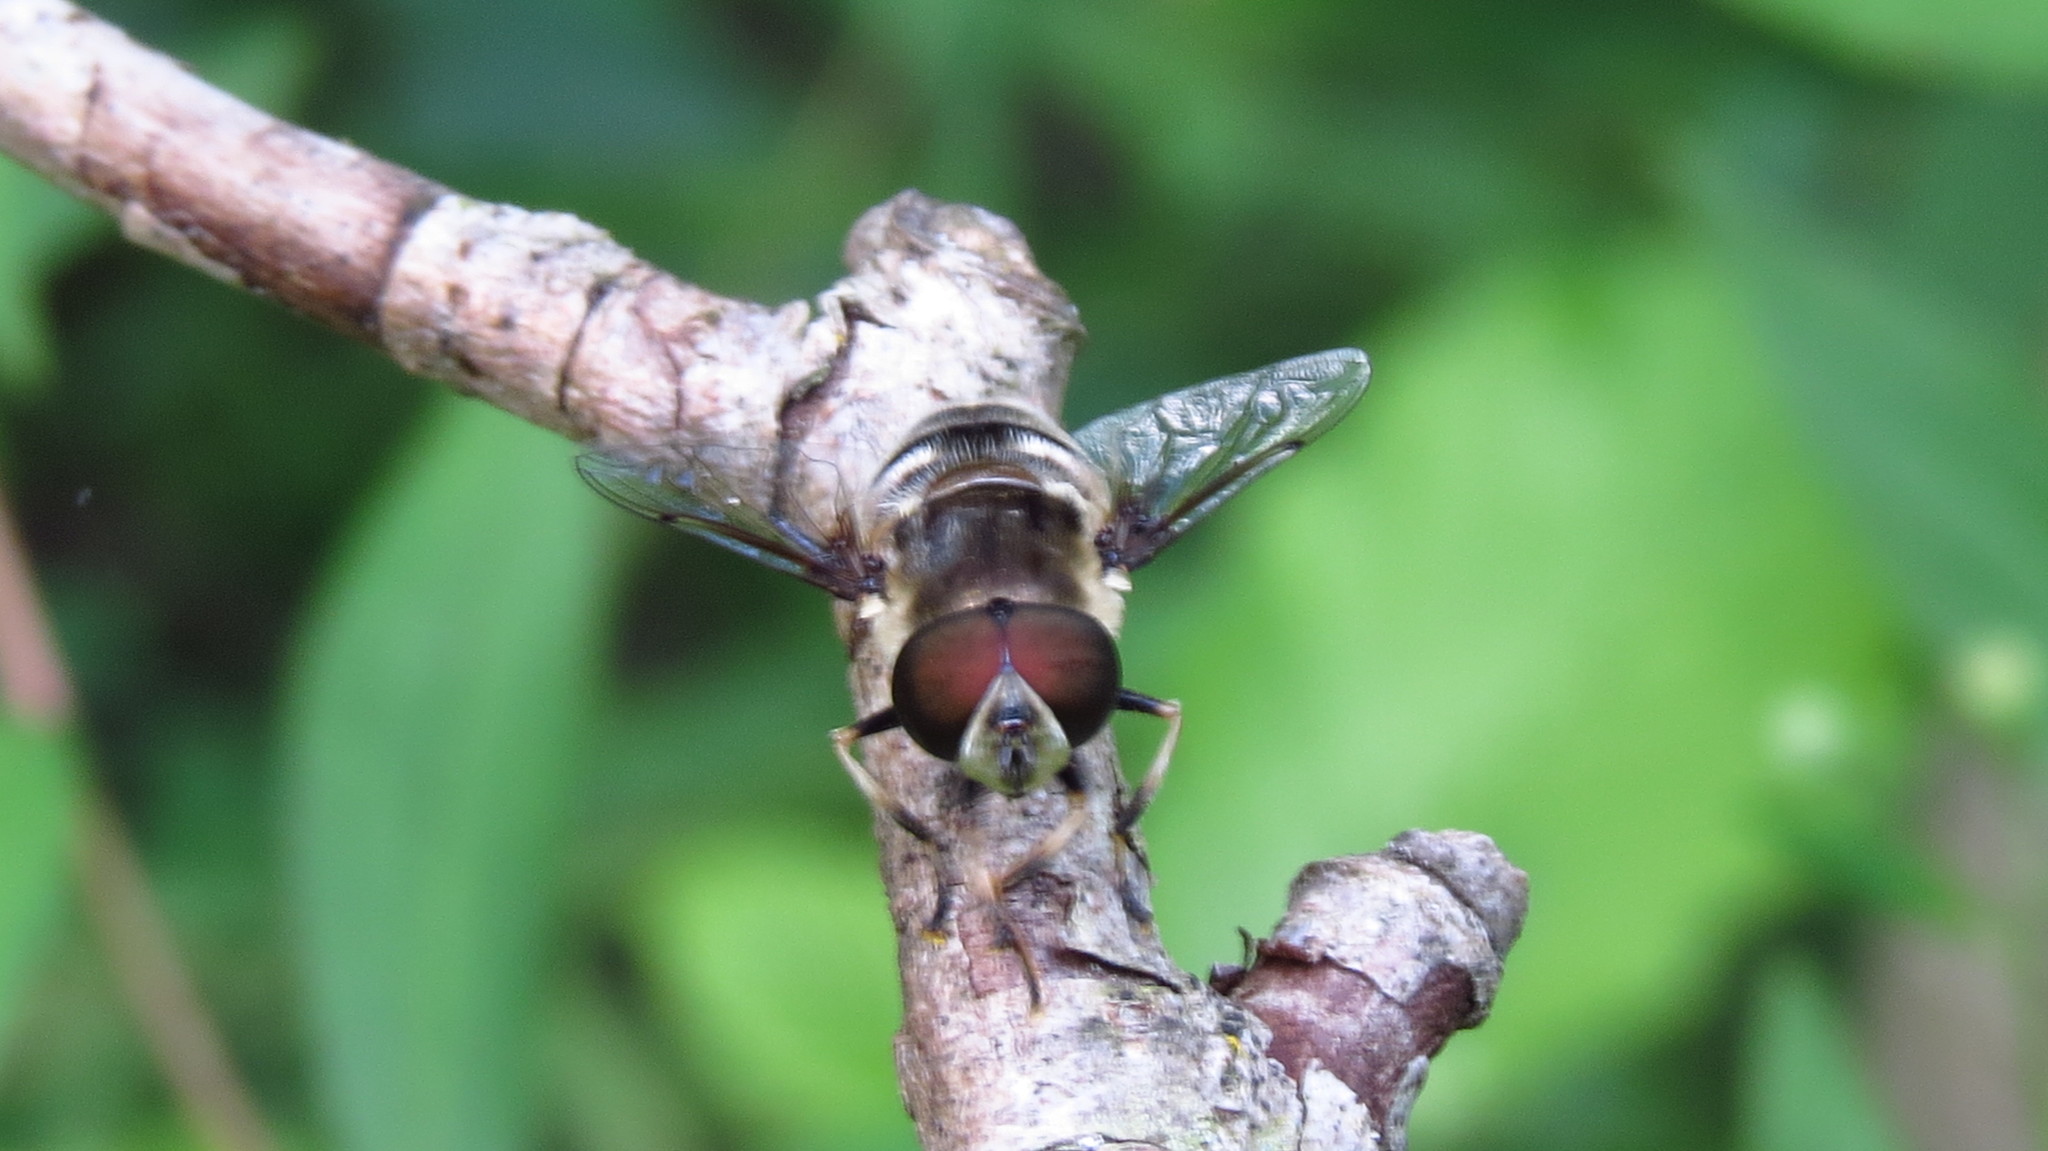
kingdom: Animalia
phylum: Arthropoda
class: Insecta
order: Diptera
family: Syrphidae
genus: Eristalis
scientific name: Eristalis dimidiata
